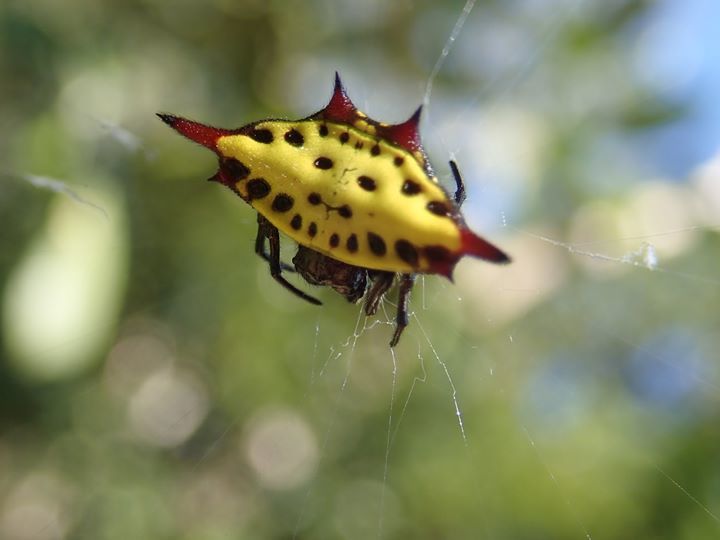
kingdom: Animalia
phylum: Arthropoda
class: Arachnida
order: Araneae
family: Araneidae
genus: Gasteracantha
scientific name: Gasteracantha sauteri
